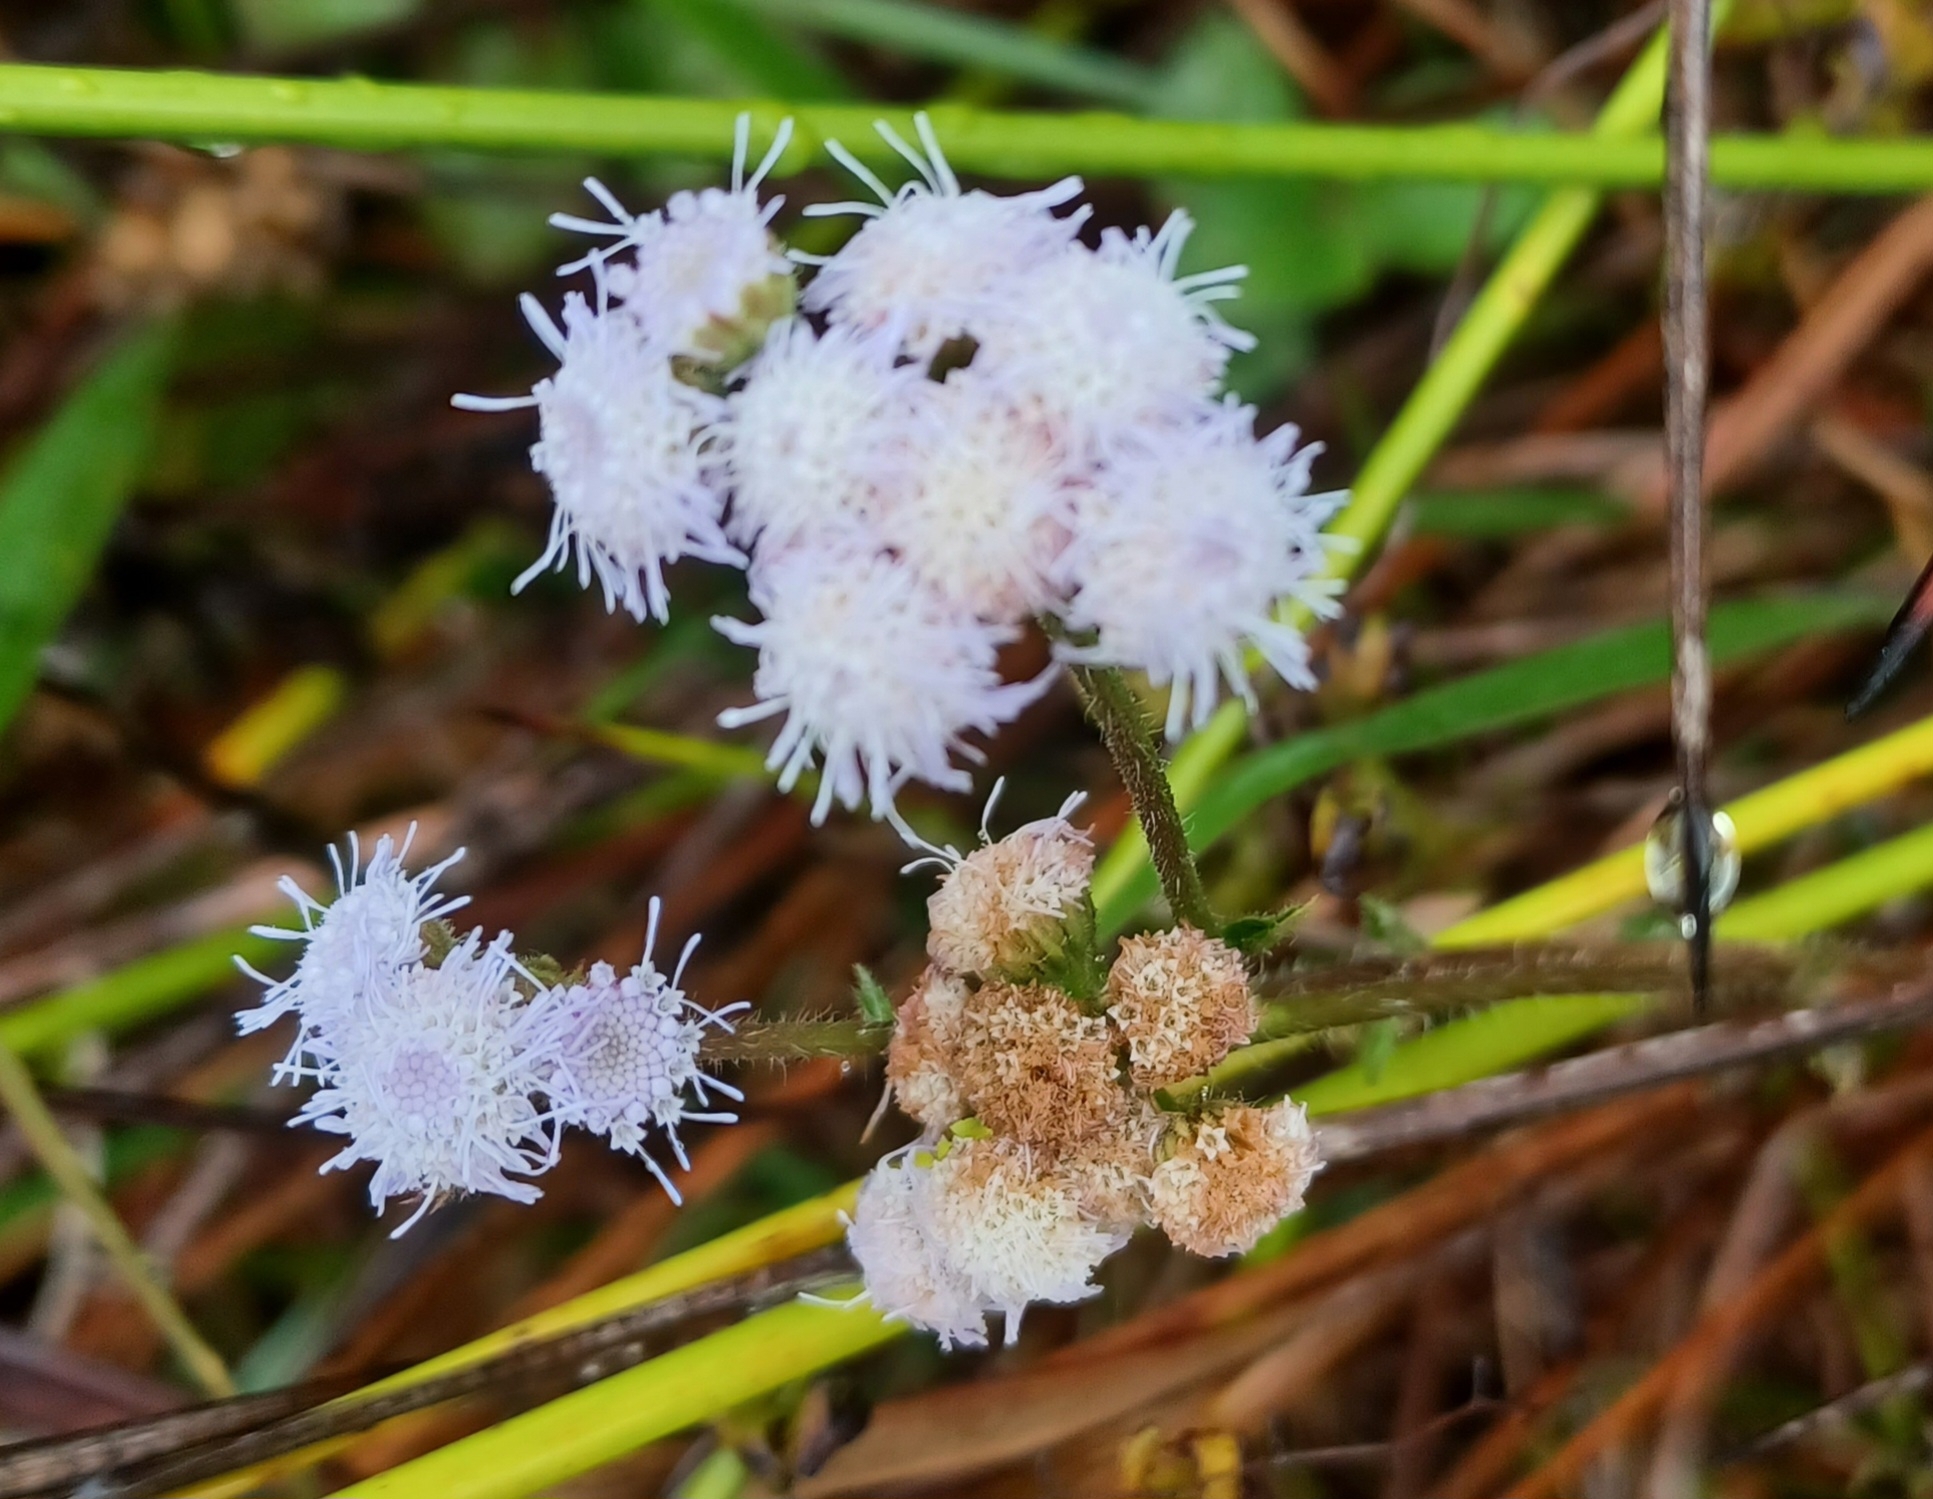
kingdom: Plantae
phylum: Tracheophyta
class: Magnoliopsida
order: Asterales
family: Asteraceae
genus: Ageratum
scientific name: Ageratum houstonianum
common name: Bluemink
